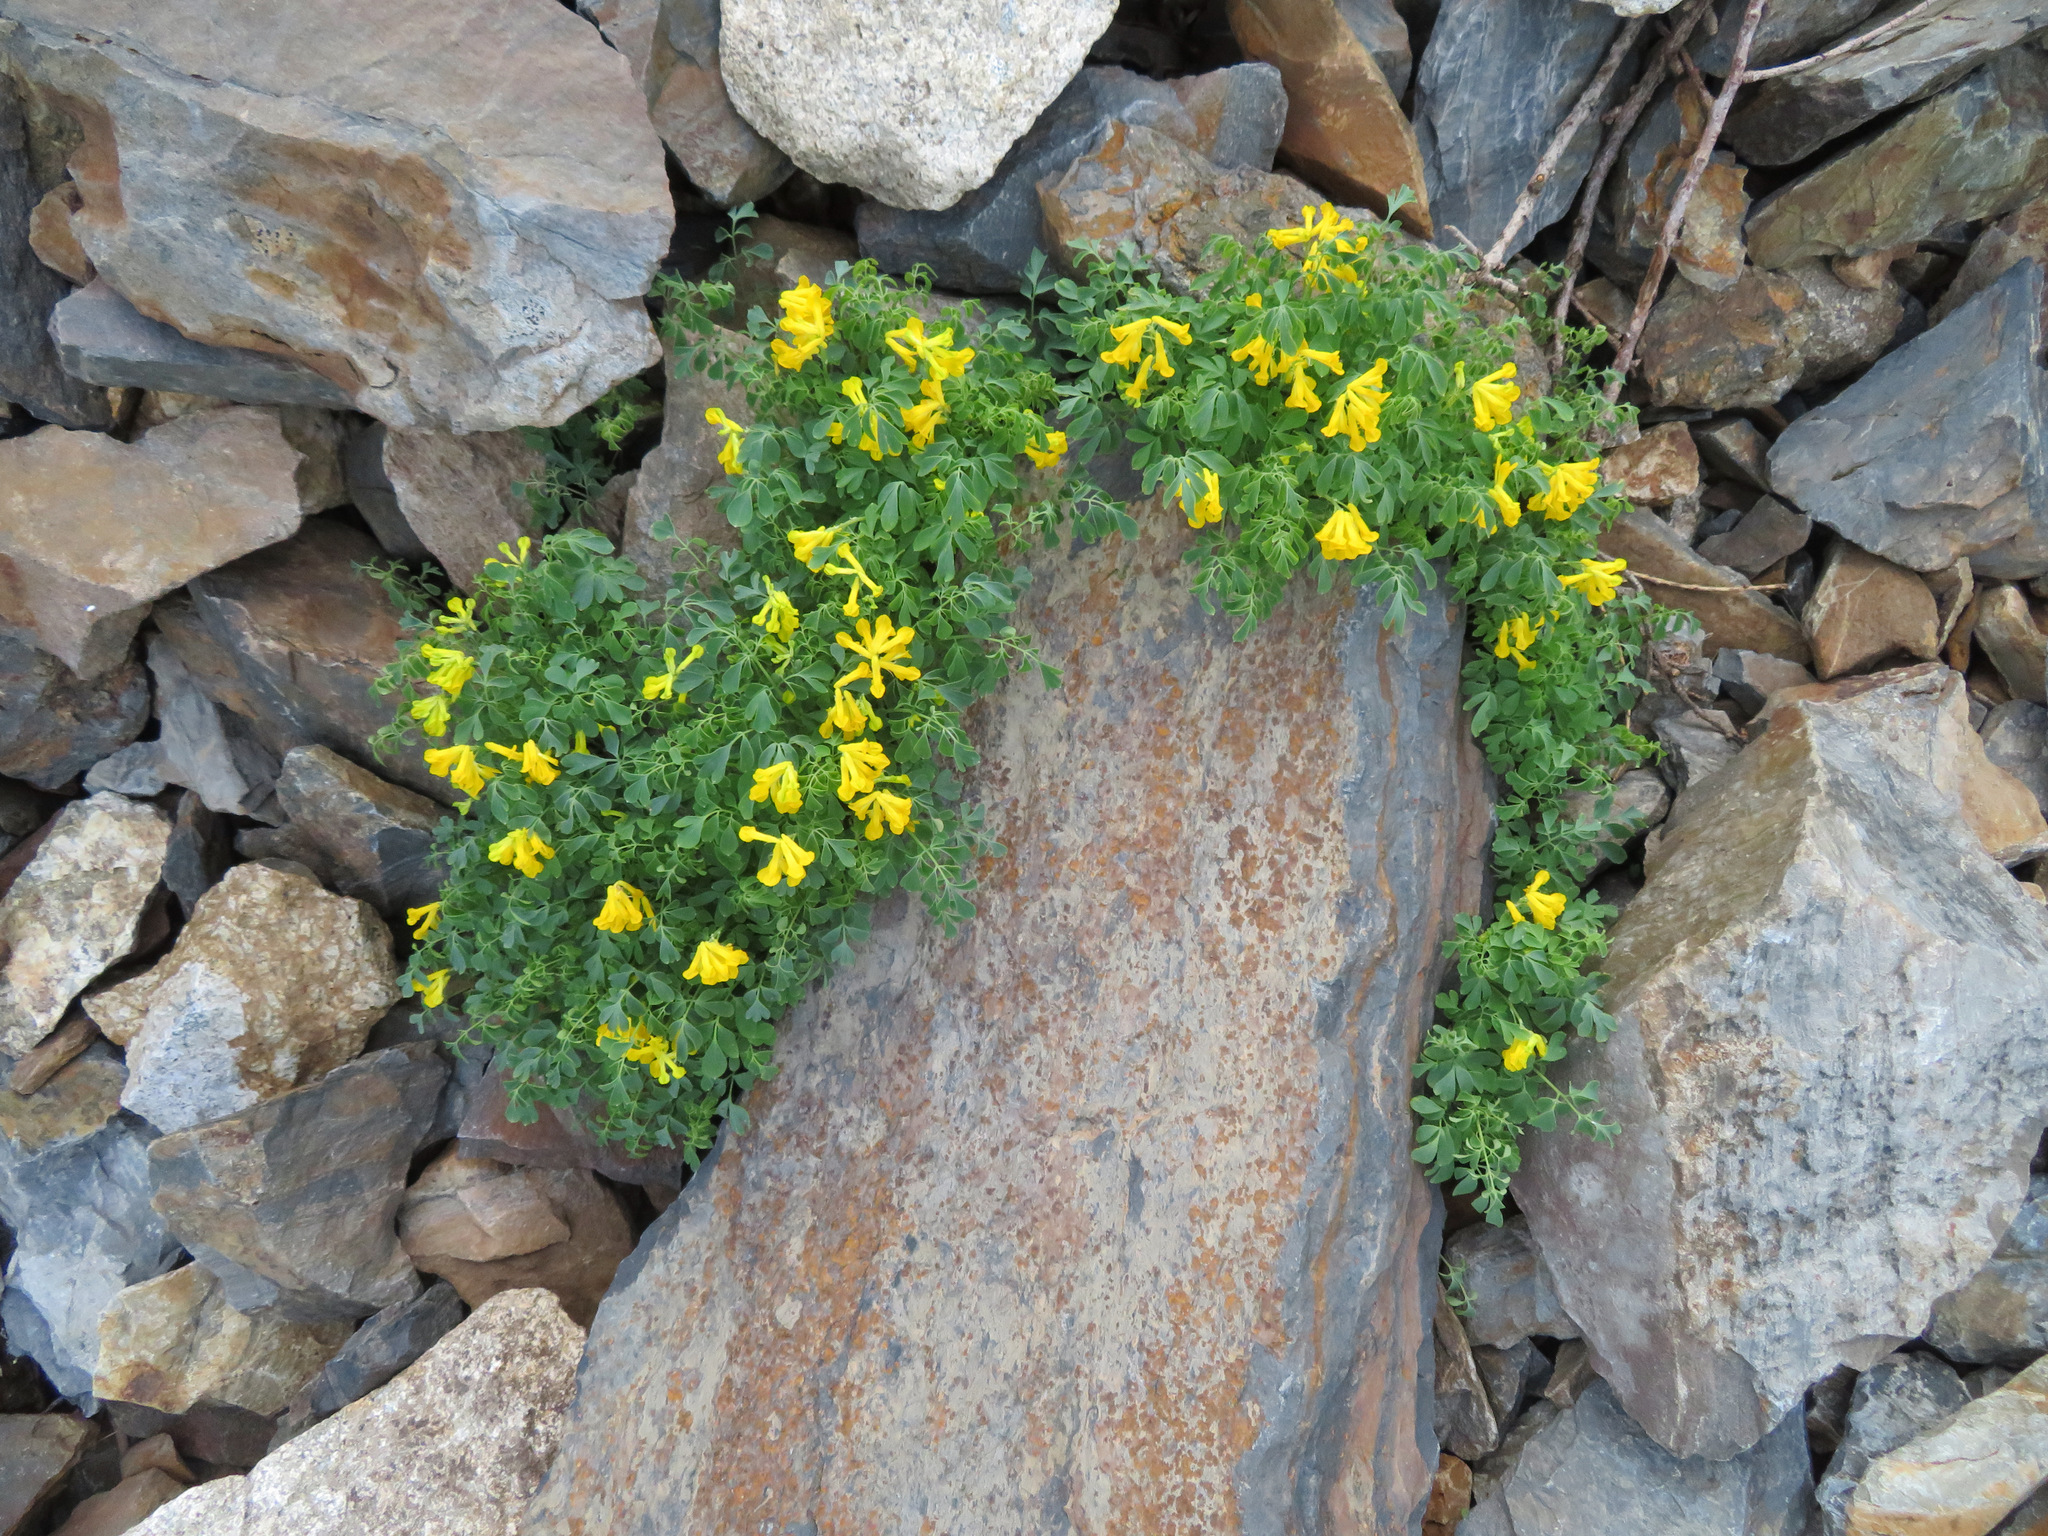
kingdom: Plantae
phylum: Tracheophyta
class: Magnoliopsida
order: Ranunculales
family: Papaveraceae
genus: Pseudofumaria
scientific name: Pseudofumaria lutea
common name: Yellow corydalis
